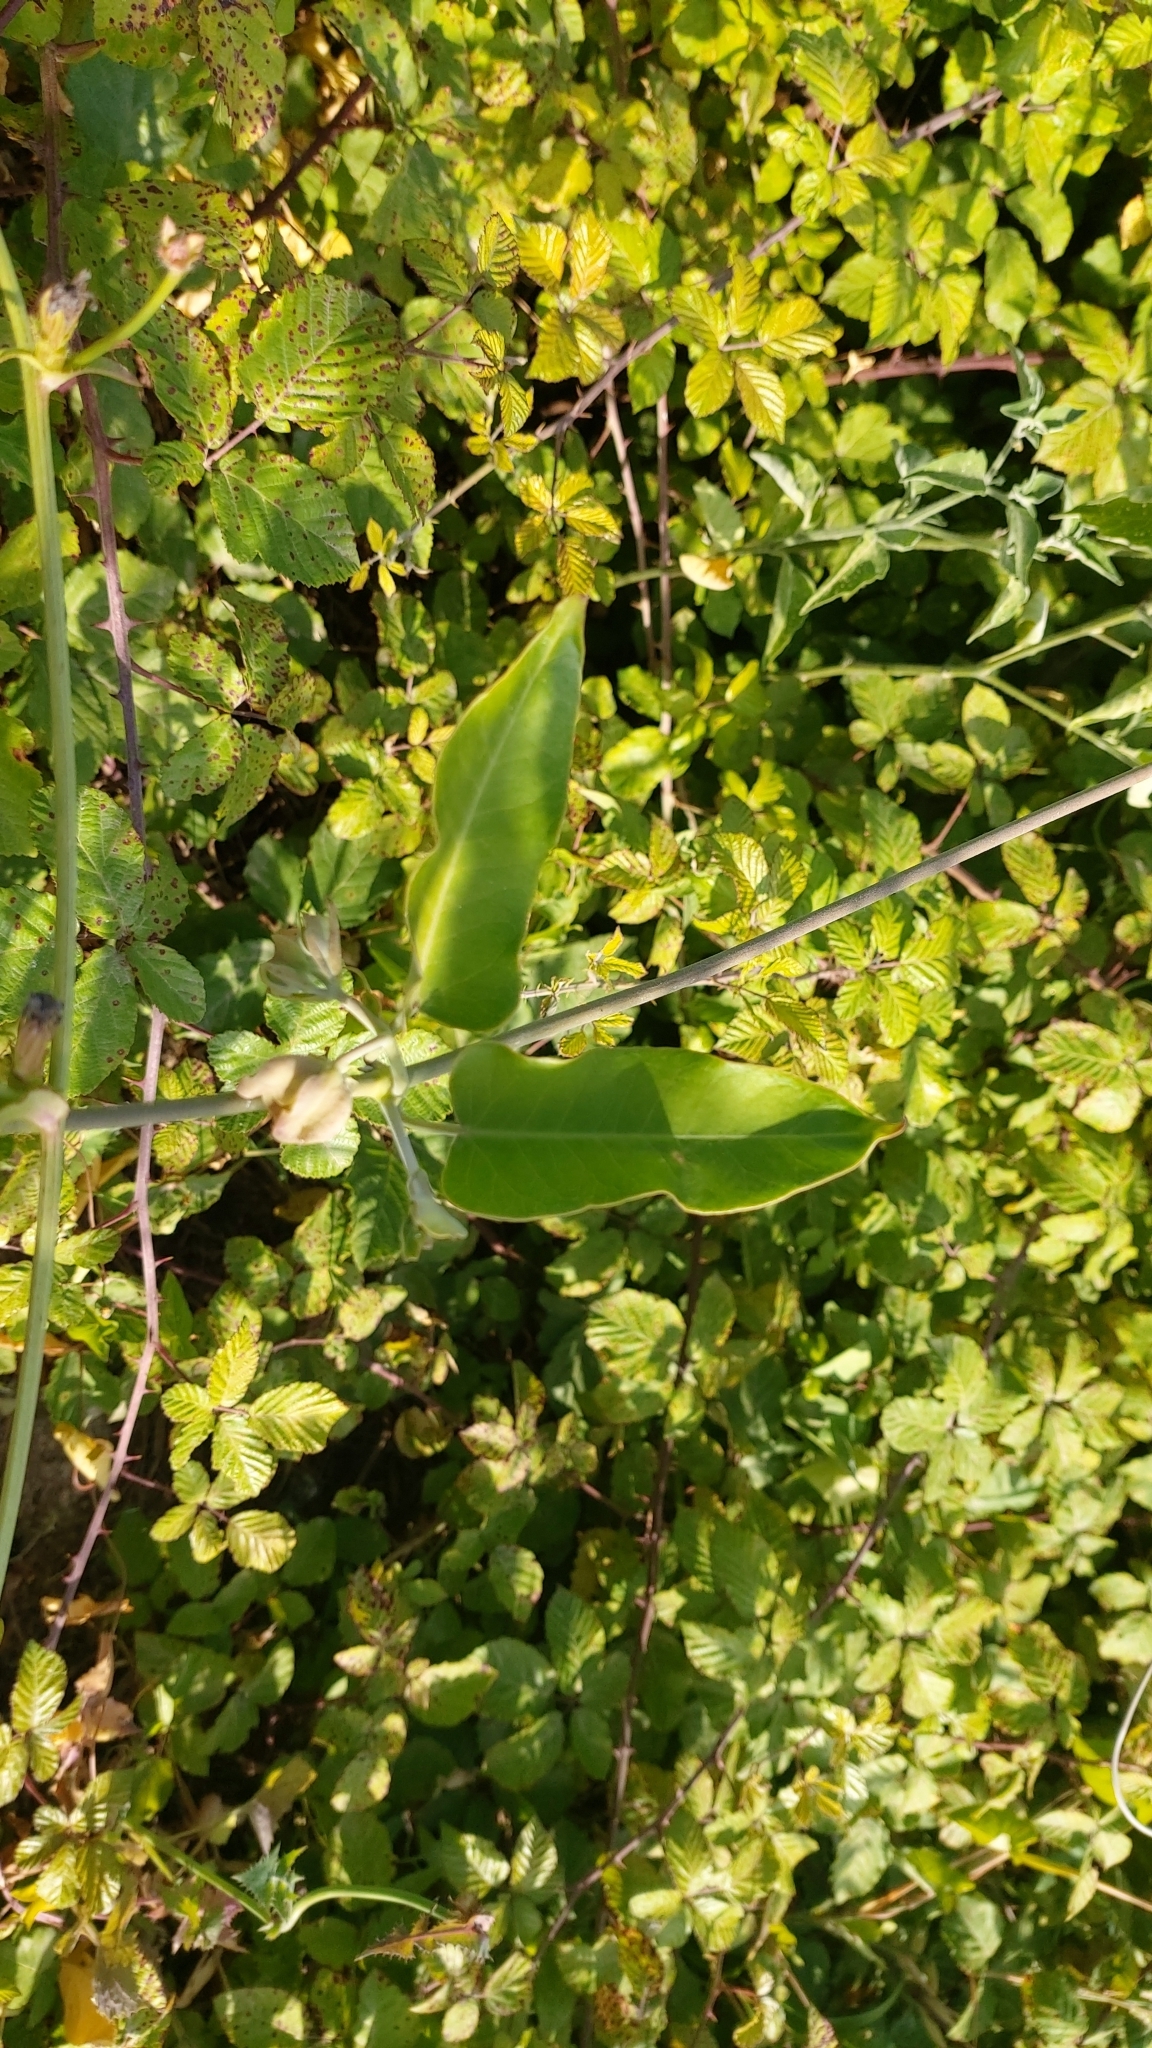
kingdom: Plantae
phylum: Tracheophyta
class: Magnoliopsida
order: Gentianales
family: Apocynaceae
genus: Araujia
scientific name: Araujia sericifera
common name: White bladderflower
